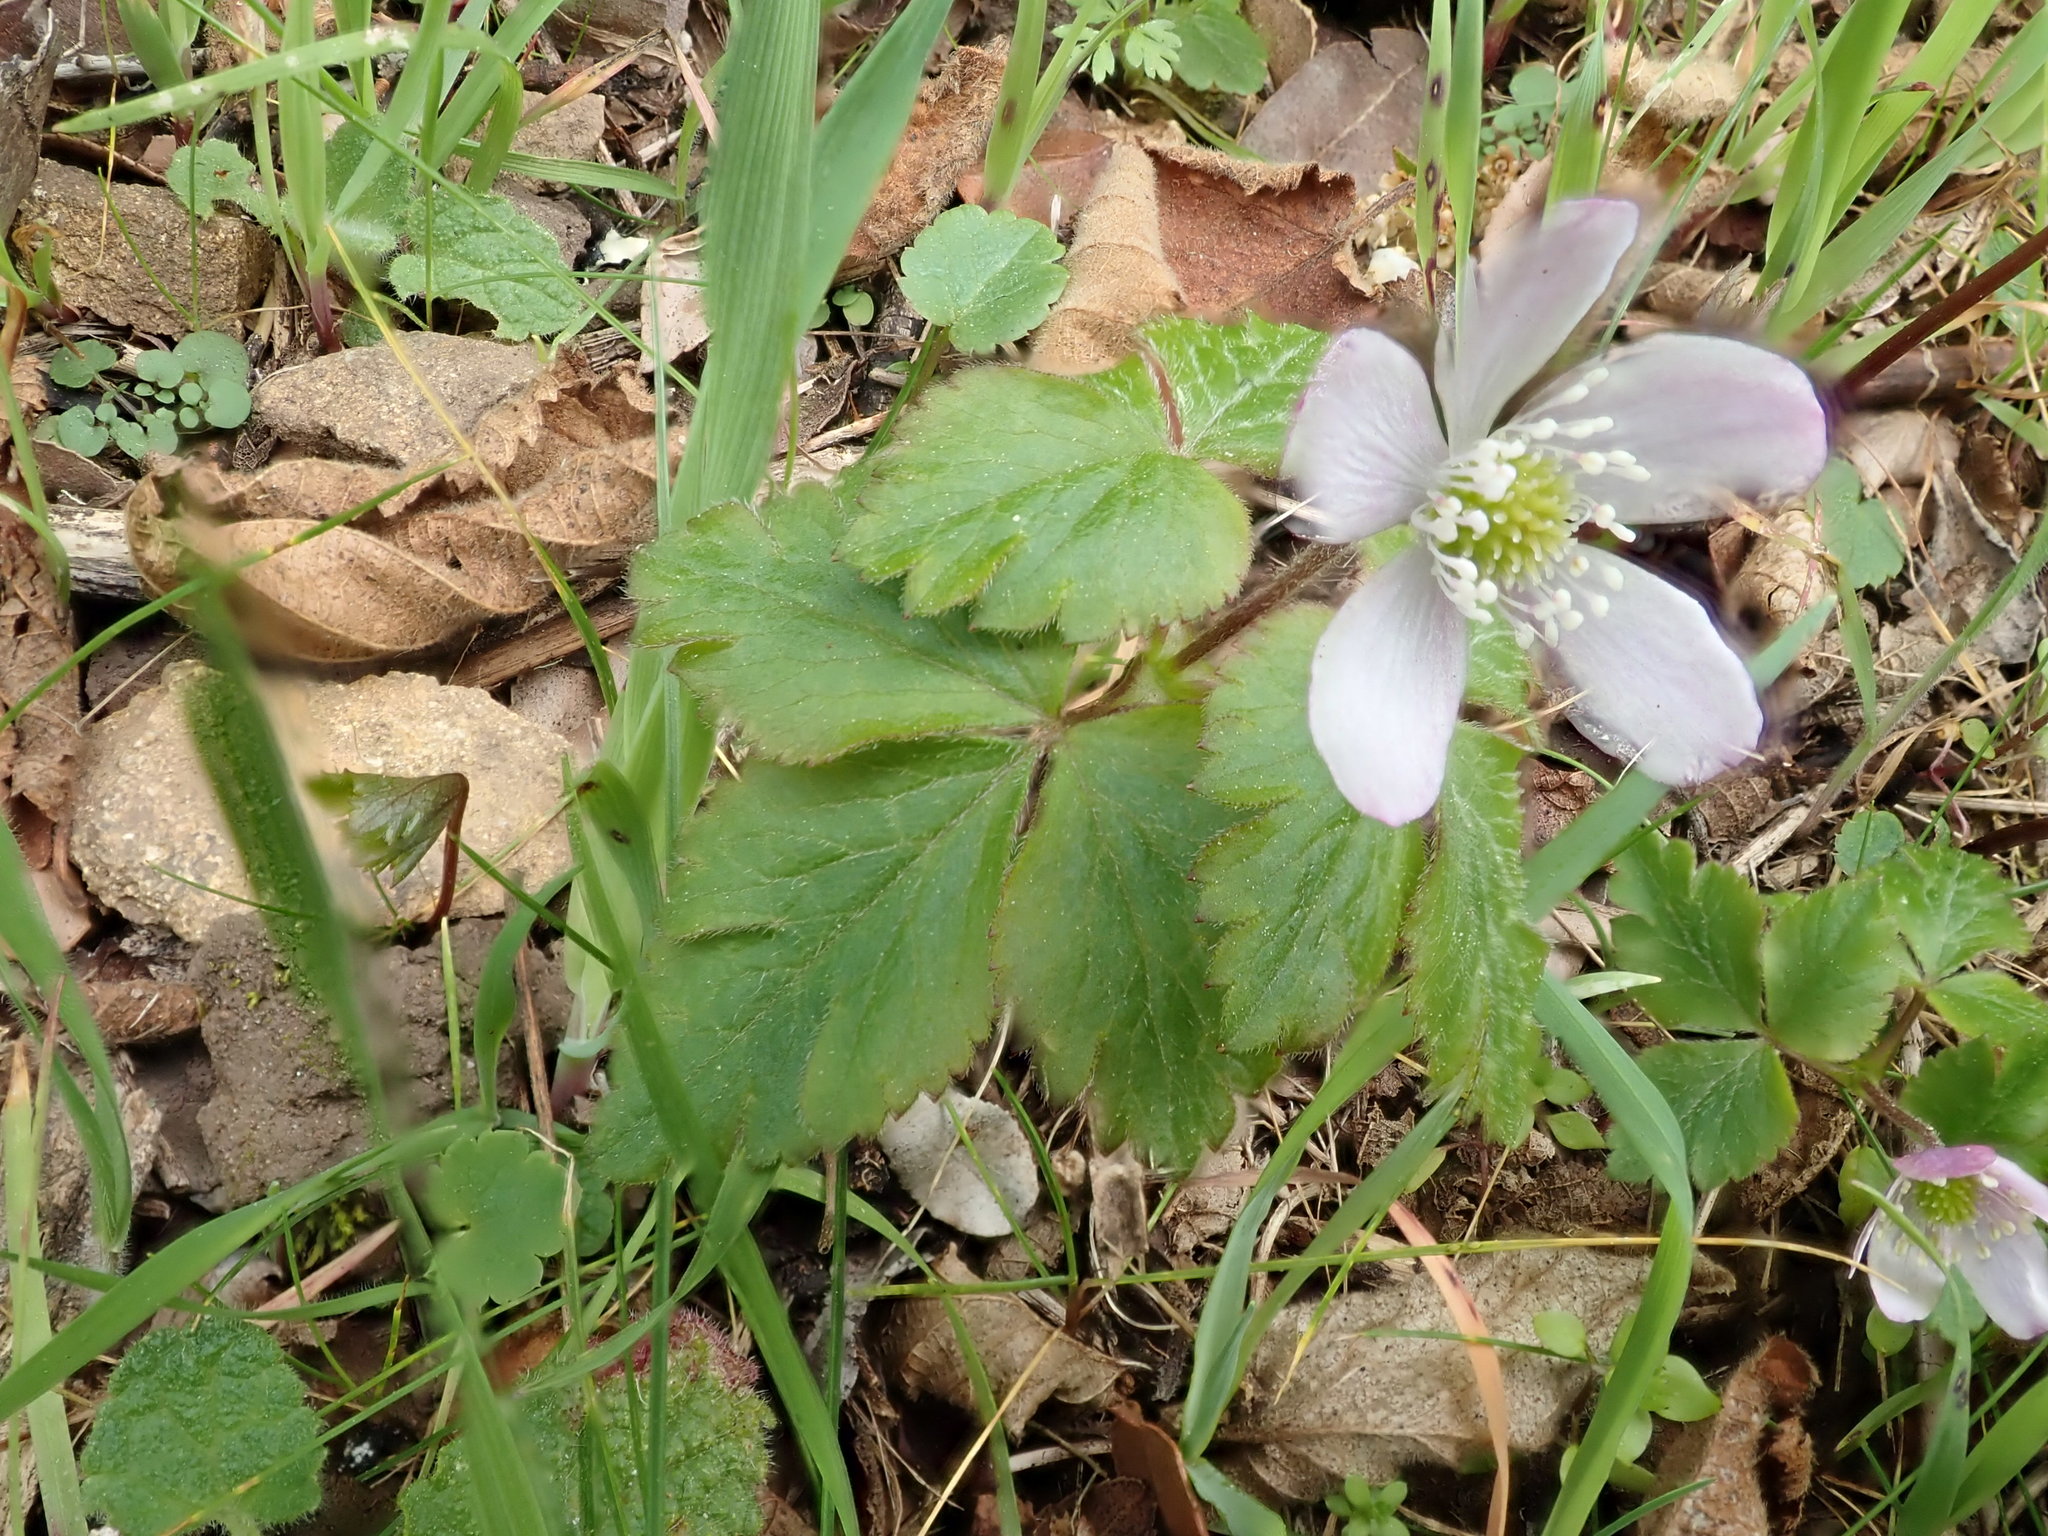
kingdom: Plantae
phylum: Tracheophyta
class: Magnoliopsida
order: Ranunculales
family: Ranunculaceae
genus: Anemone
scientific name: Anemone
